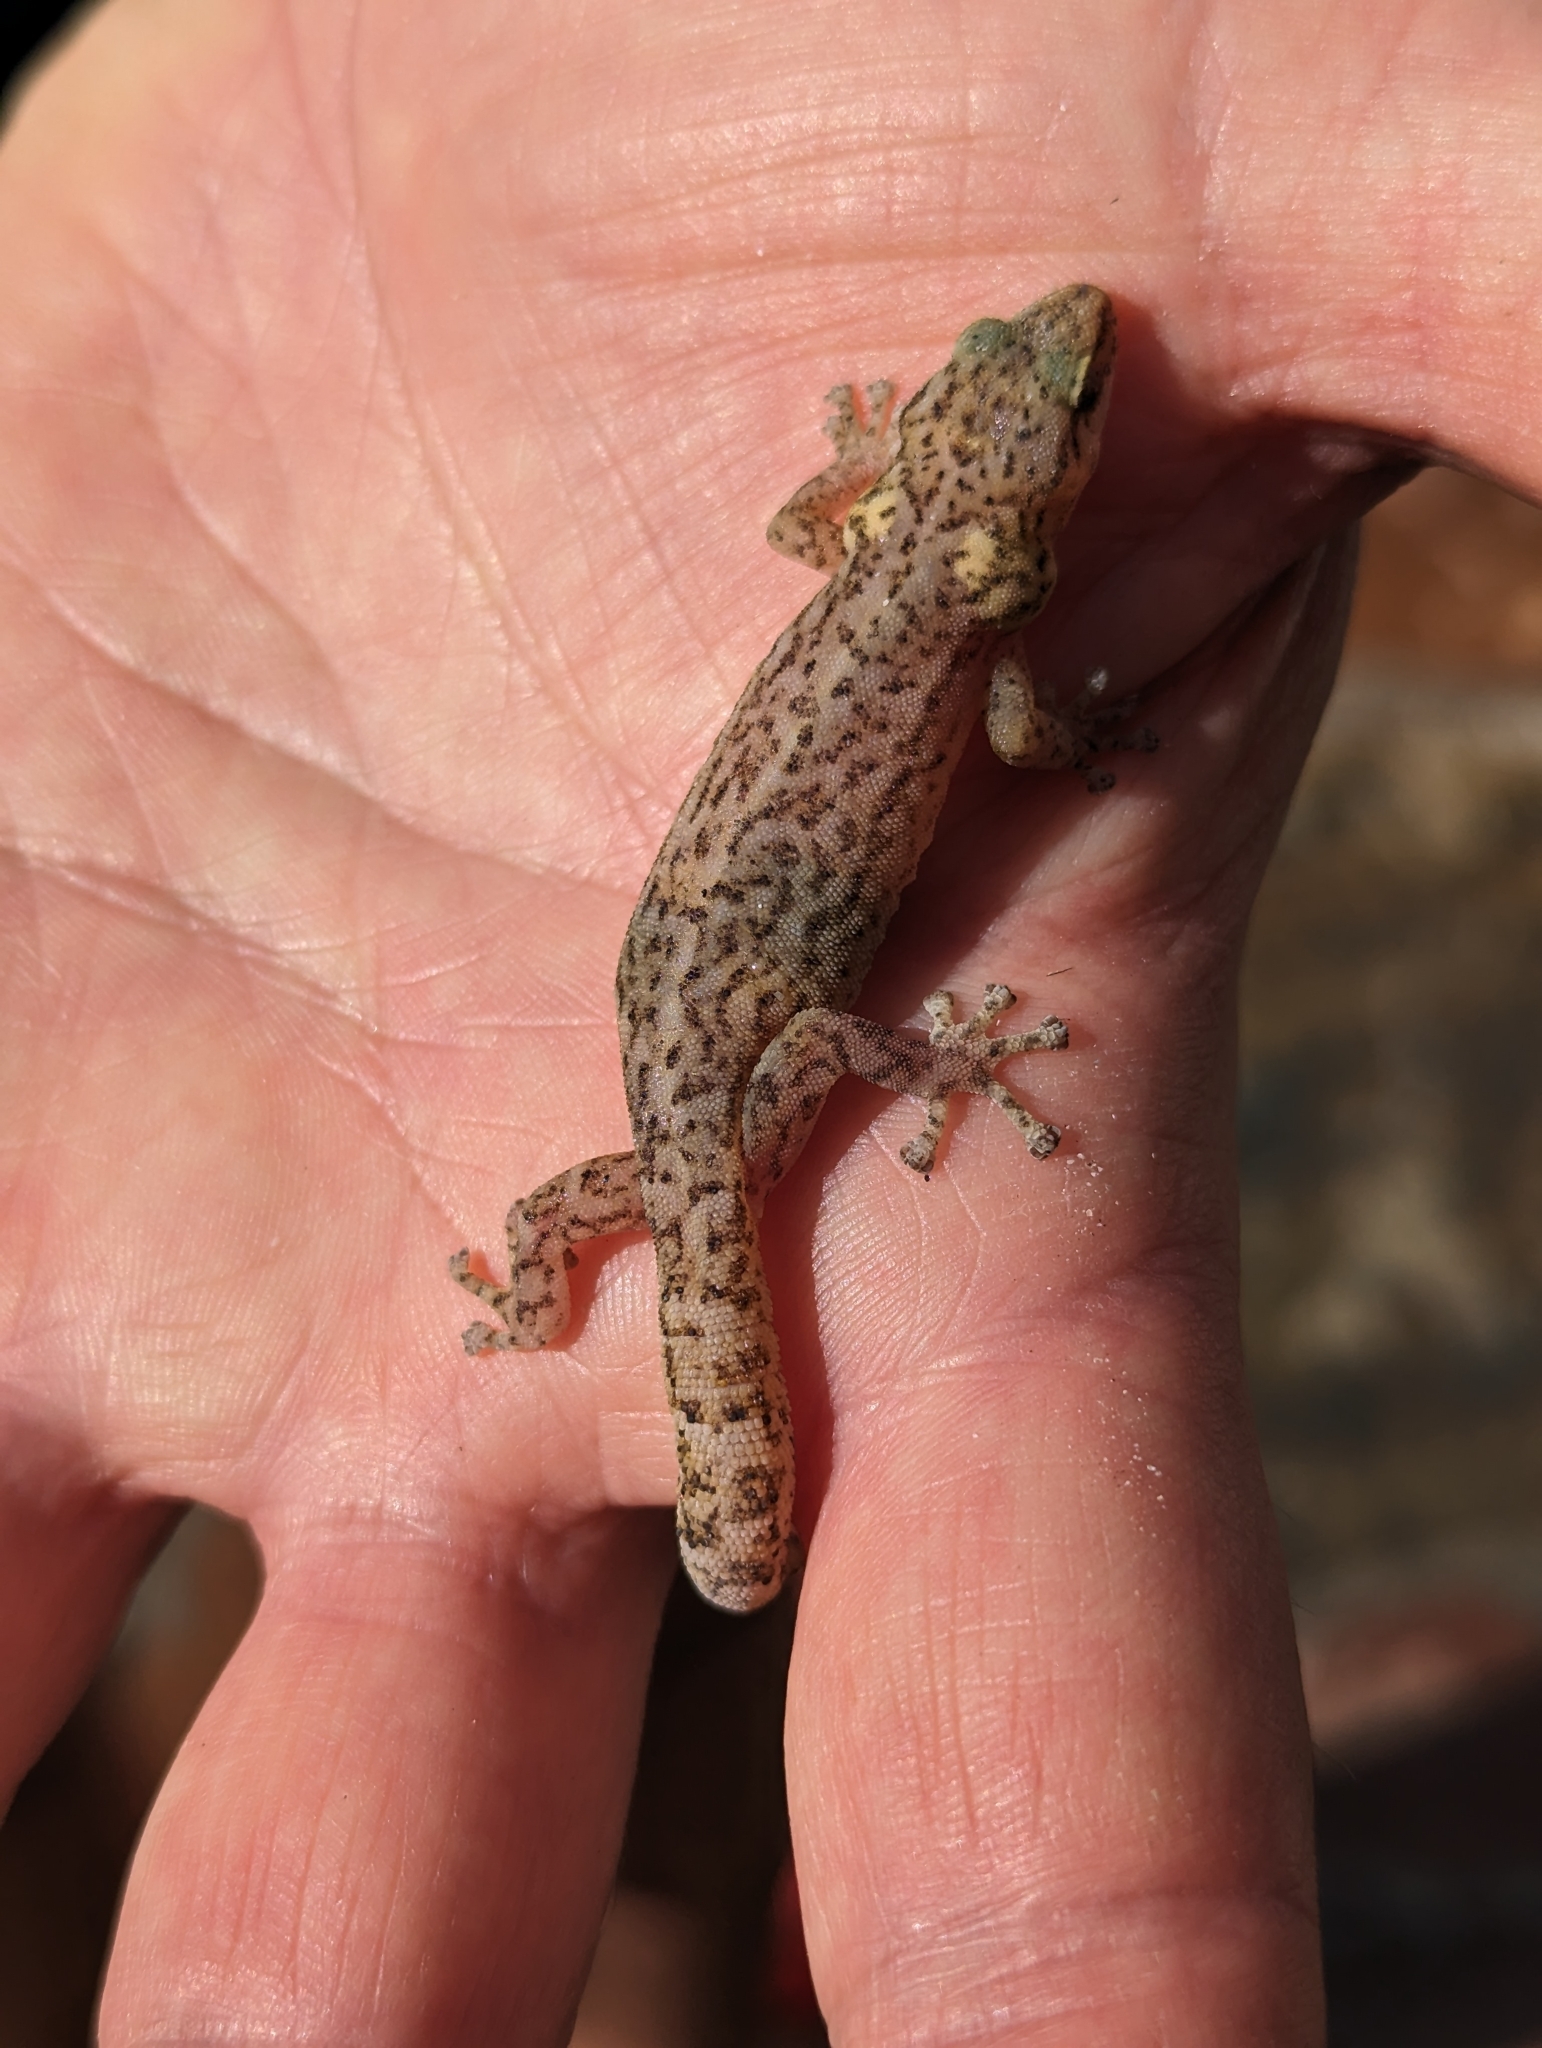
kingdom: Animalia
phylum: Chordata
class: Squamata
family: Gekkonidae
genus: Afrogecko
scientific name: Afrogecko porphyreus
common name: Marbled leaf-toed gecko
